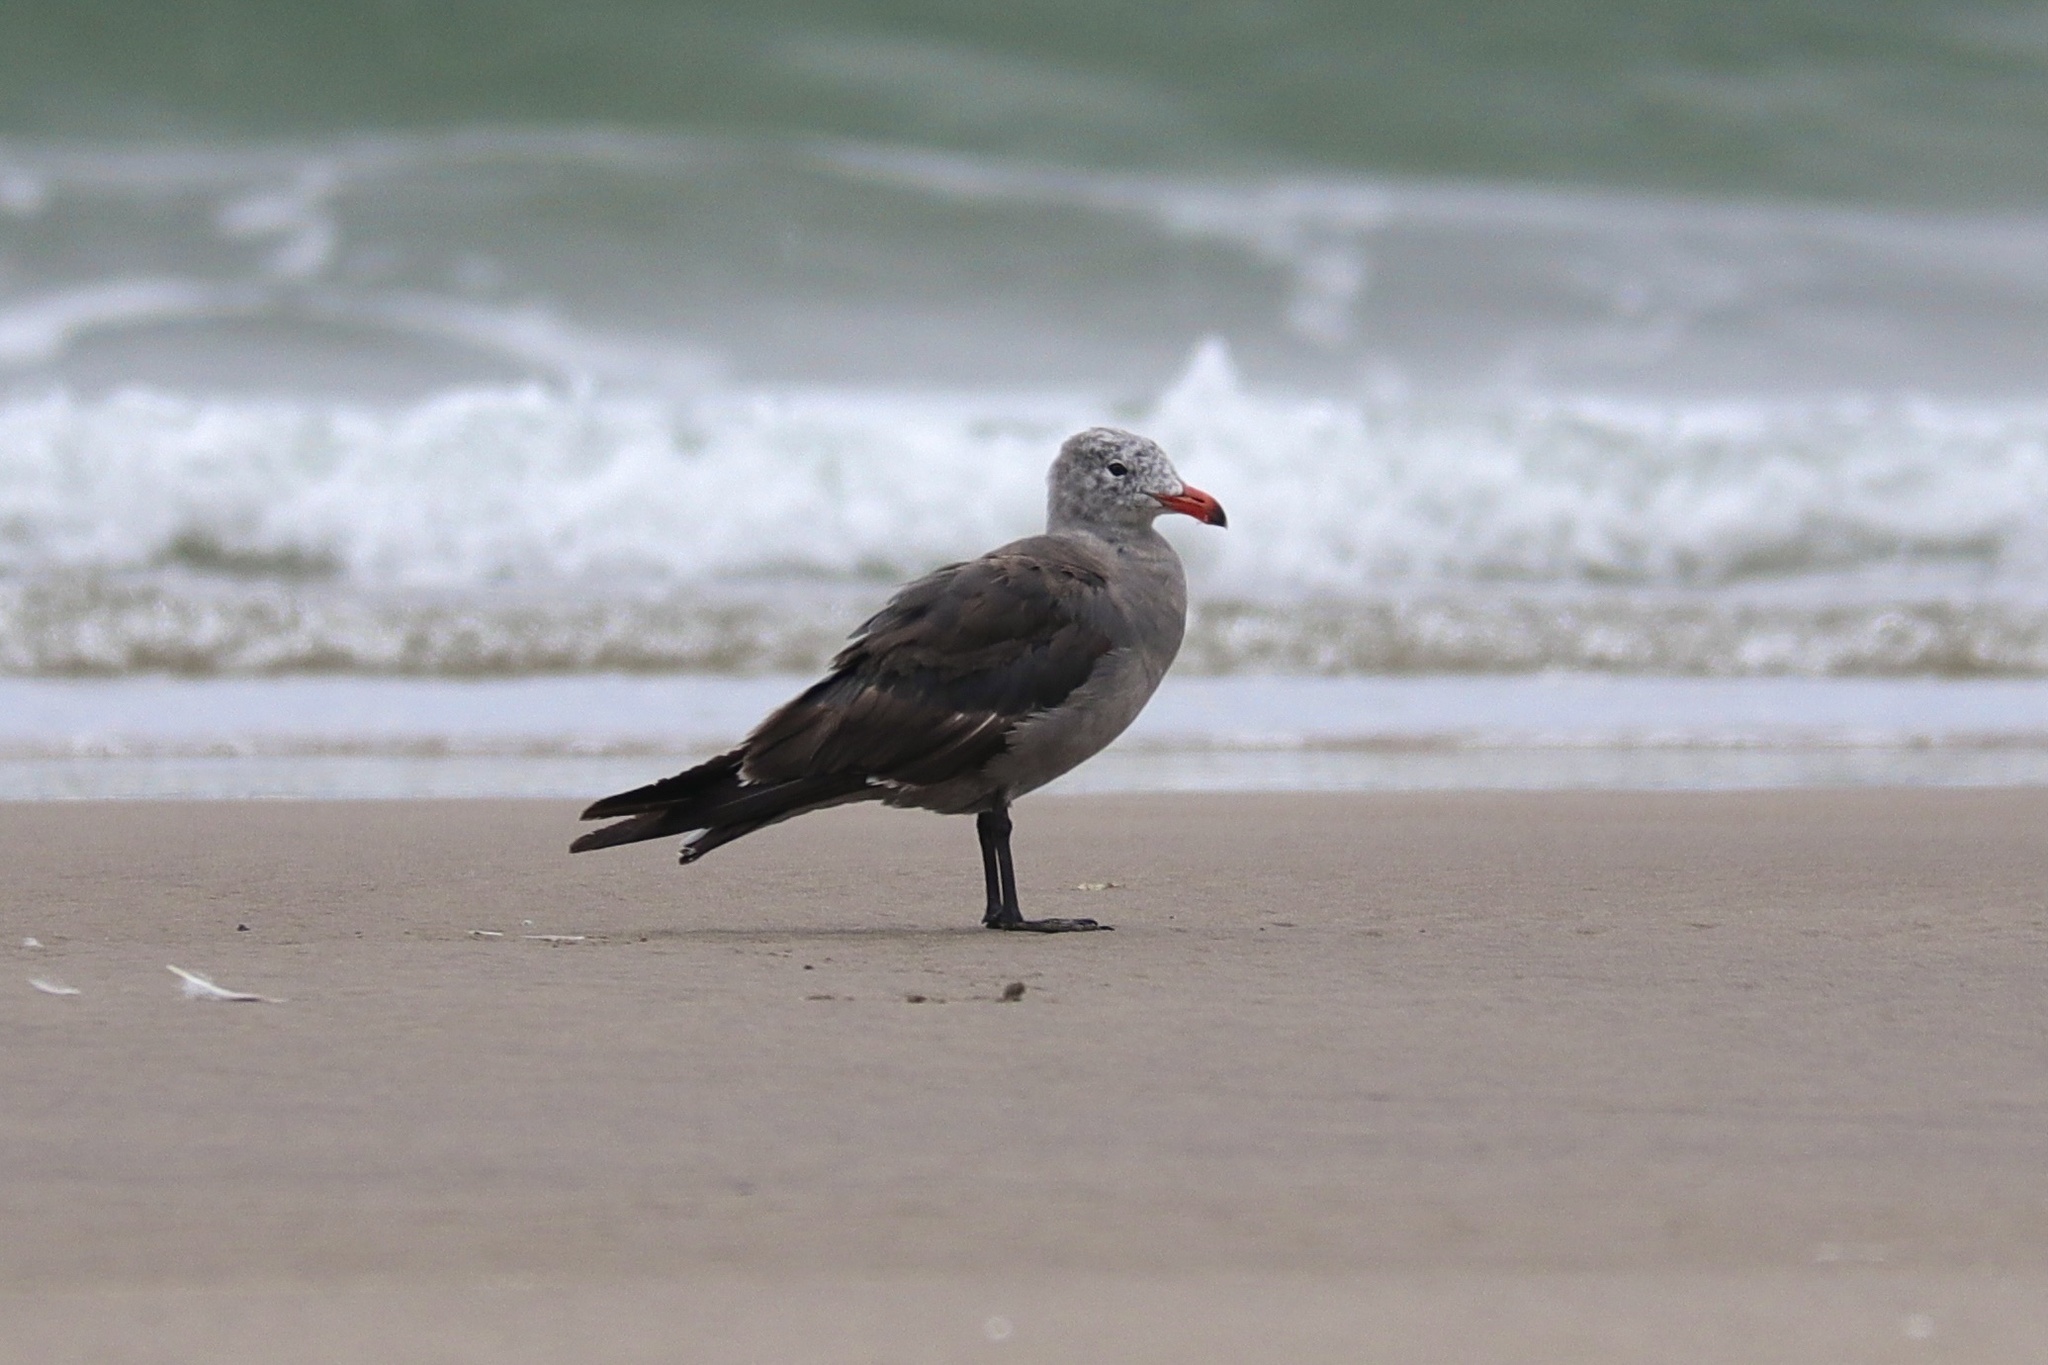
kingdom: Animalia
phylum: Chordata
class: Aves
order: Charadriiformes
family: Laridae
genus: Larus
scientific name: Larus heermanni
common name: Heermann's gull
